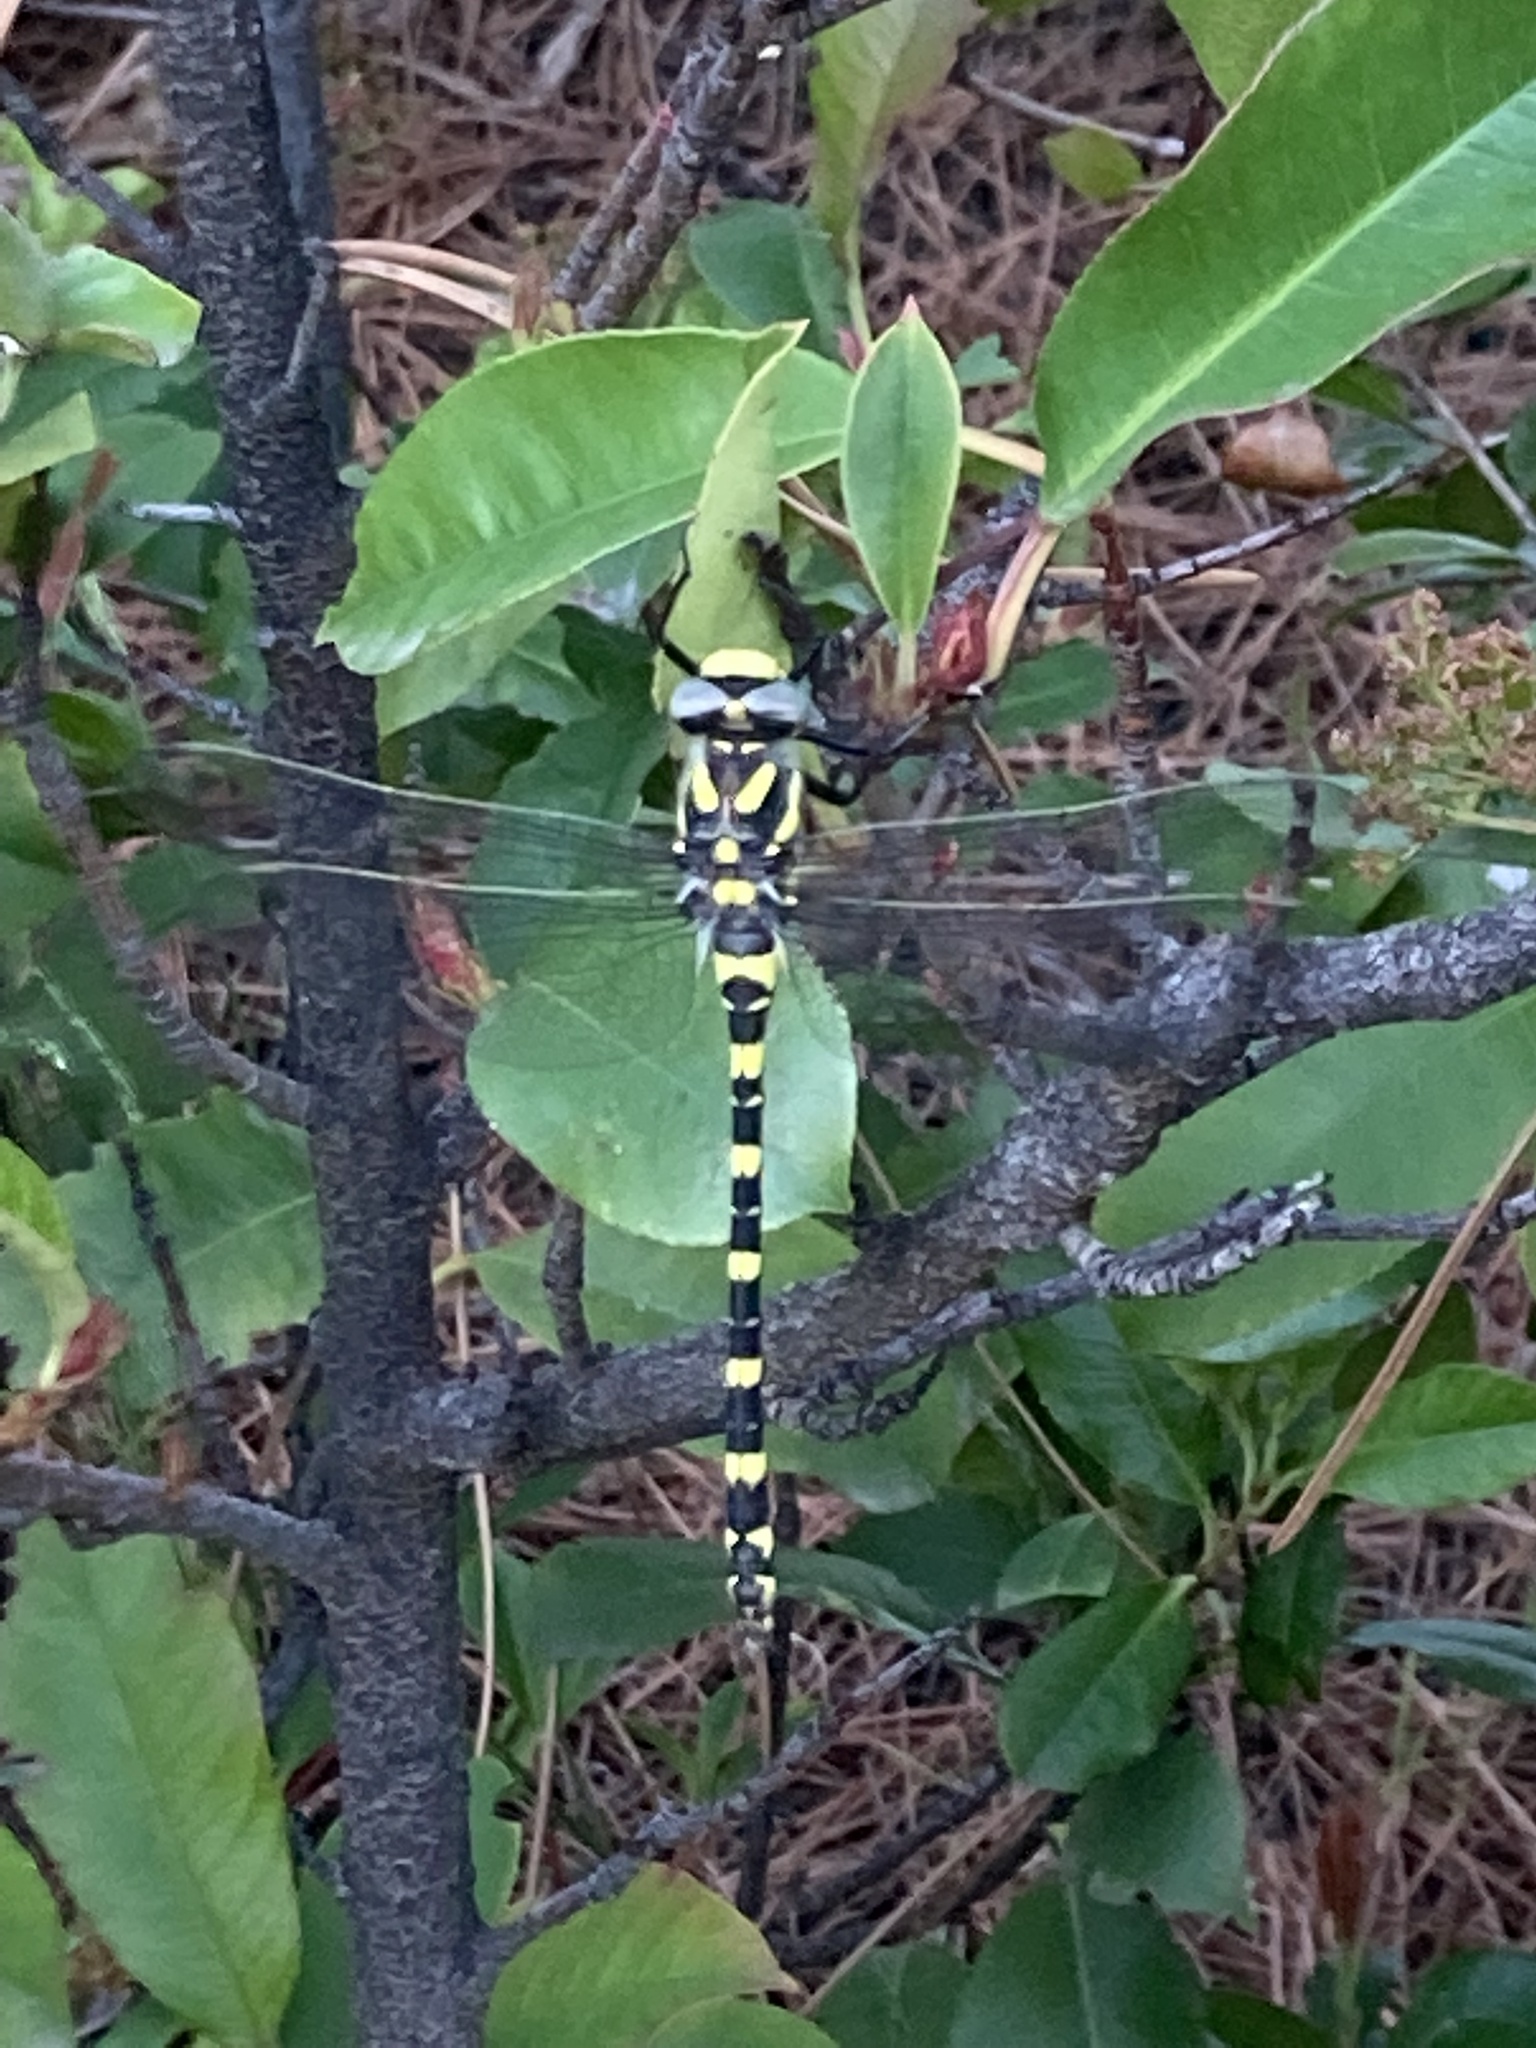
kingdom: Animalia
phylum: Arthropoda
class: Insecta
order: Odonata
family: Cordulegastridae
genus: Cordulegaster
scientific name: Cordulegaster boltonii
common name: Golden-ringed dragonfly
